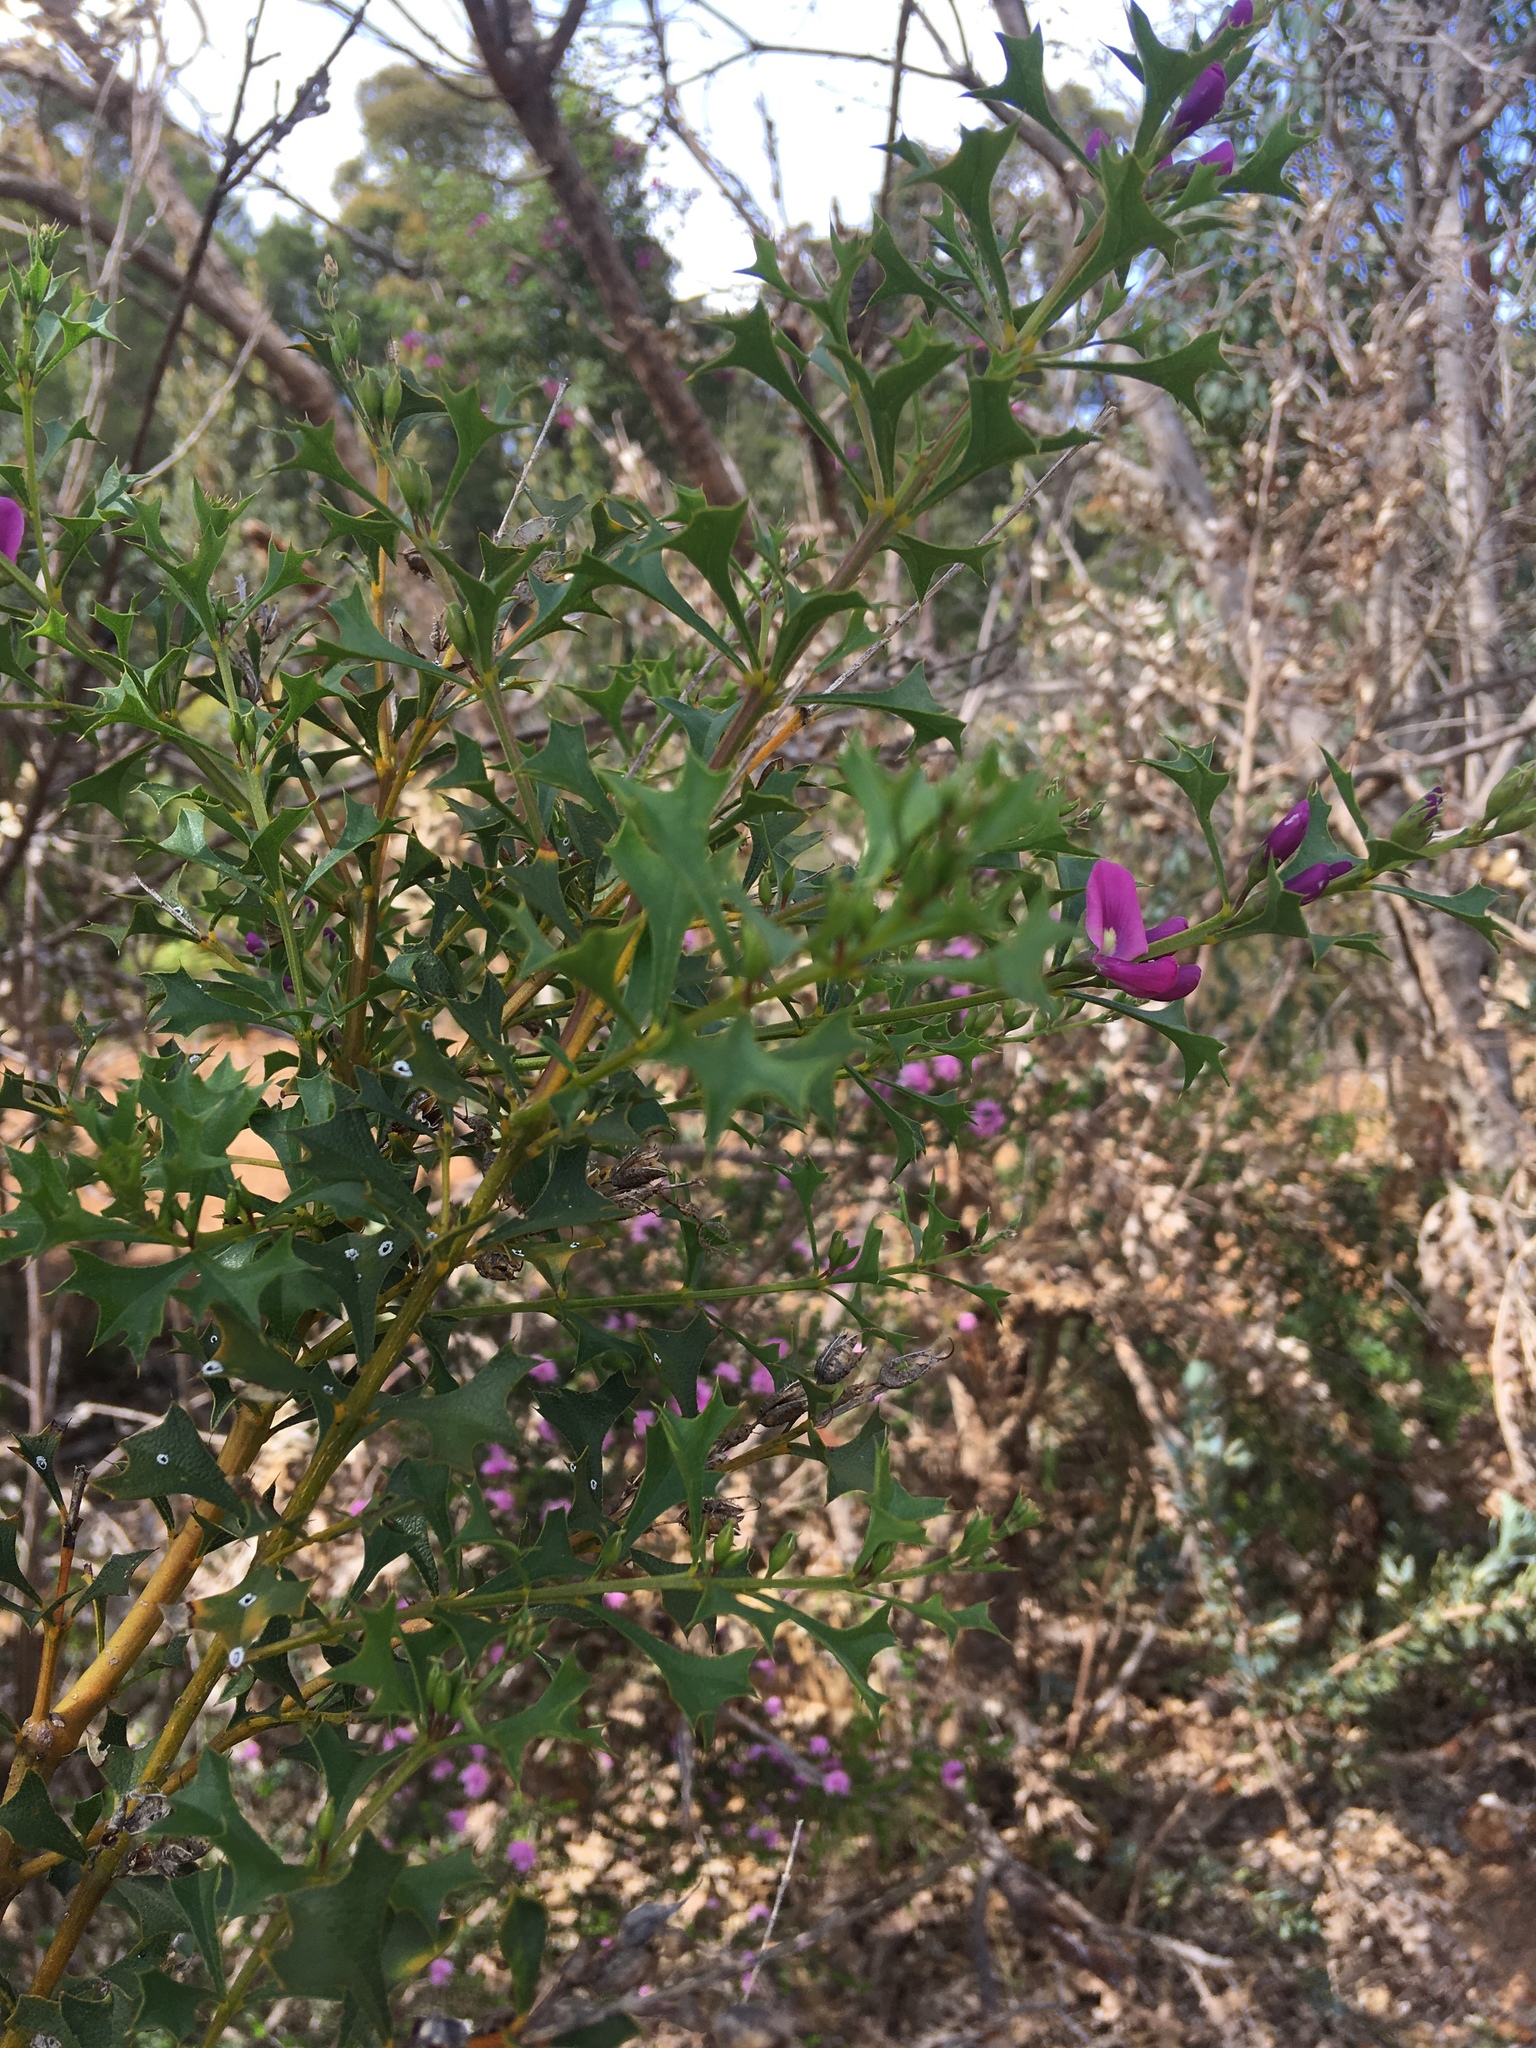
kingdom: Plantae
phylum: Tracheophyta
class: Magnoliopsida
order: Fabales
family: Fabaceae
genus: Mirbelia
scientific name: Mirbelia dilatata
